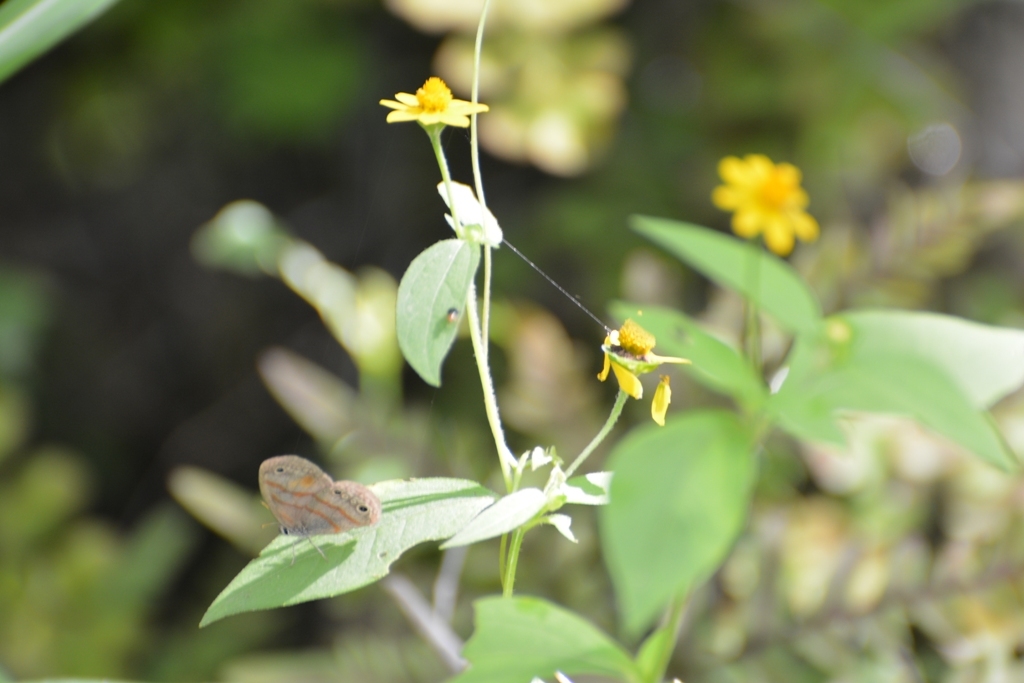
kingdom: Animalia
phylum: Arthropoda
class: Insecta
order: Lepidoptera
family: Nymphalidae
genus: Euptychia
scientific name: Euptychia fetna
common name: Orange-patched satyr
